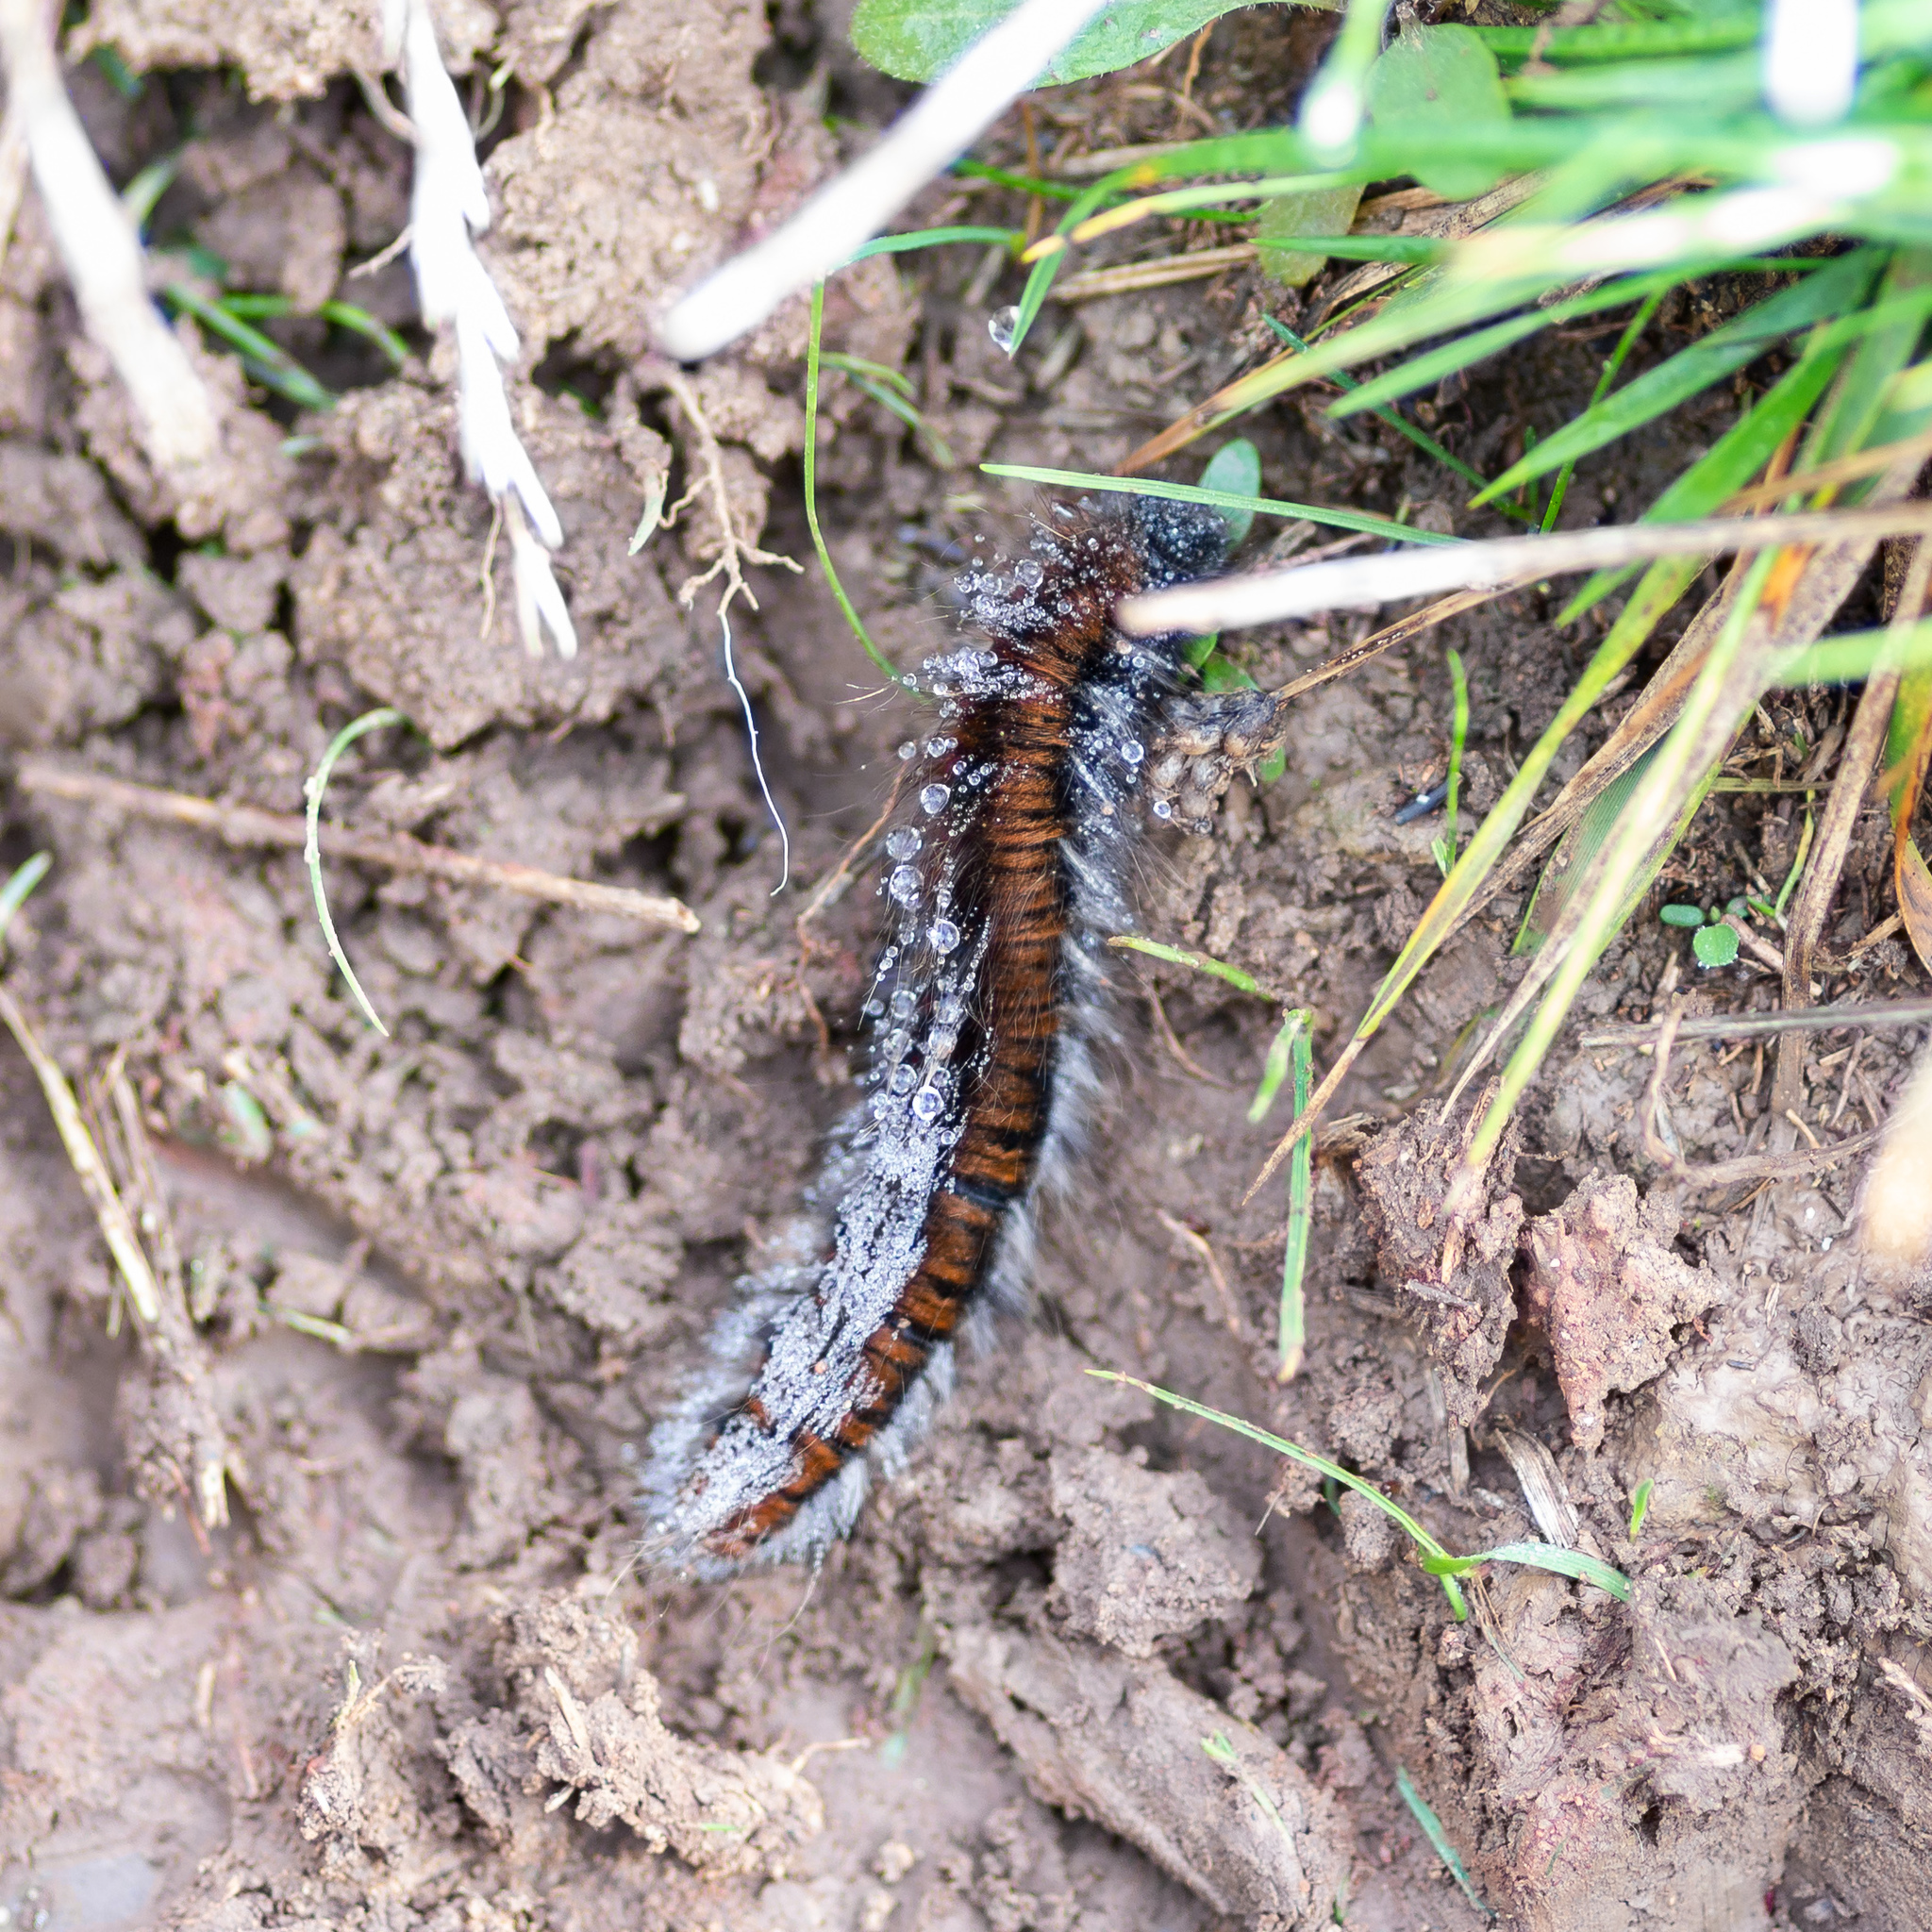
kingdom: Animalia
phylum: Arthropoda
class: Insecta
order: Lepidoptera
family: Lasiocampidae
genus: Macrothylacia
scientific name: Macrothylacia rubi
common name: Fox moth
